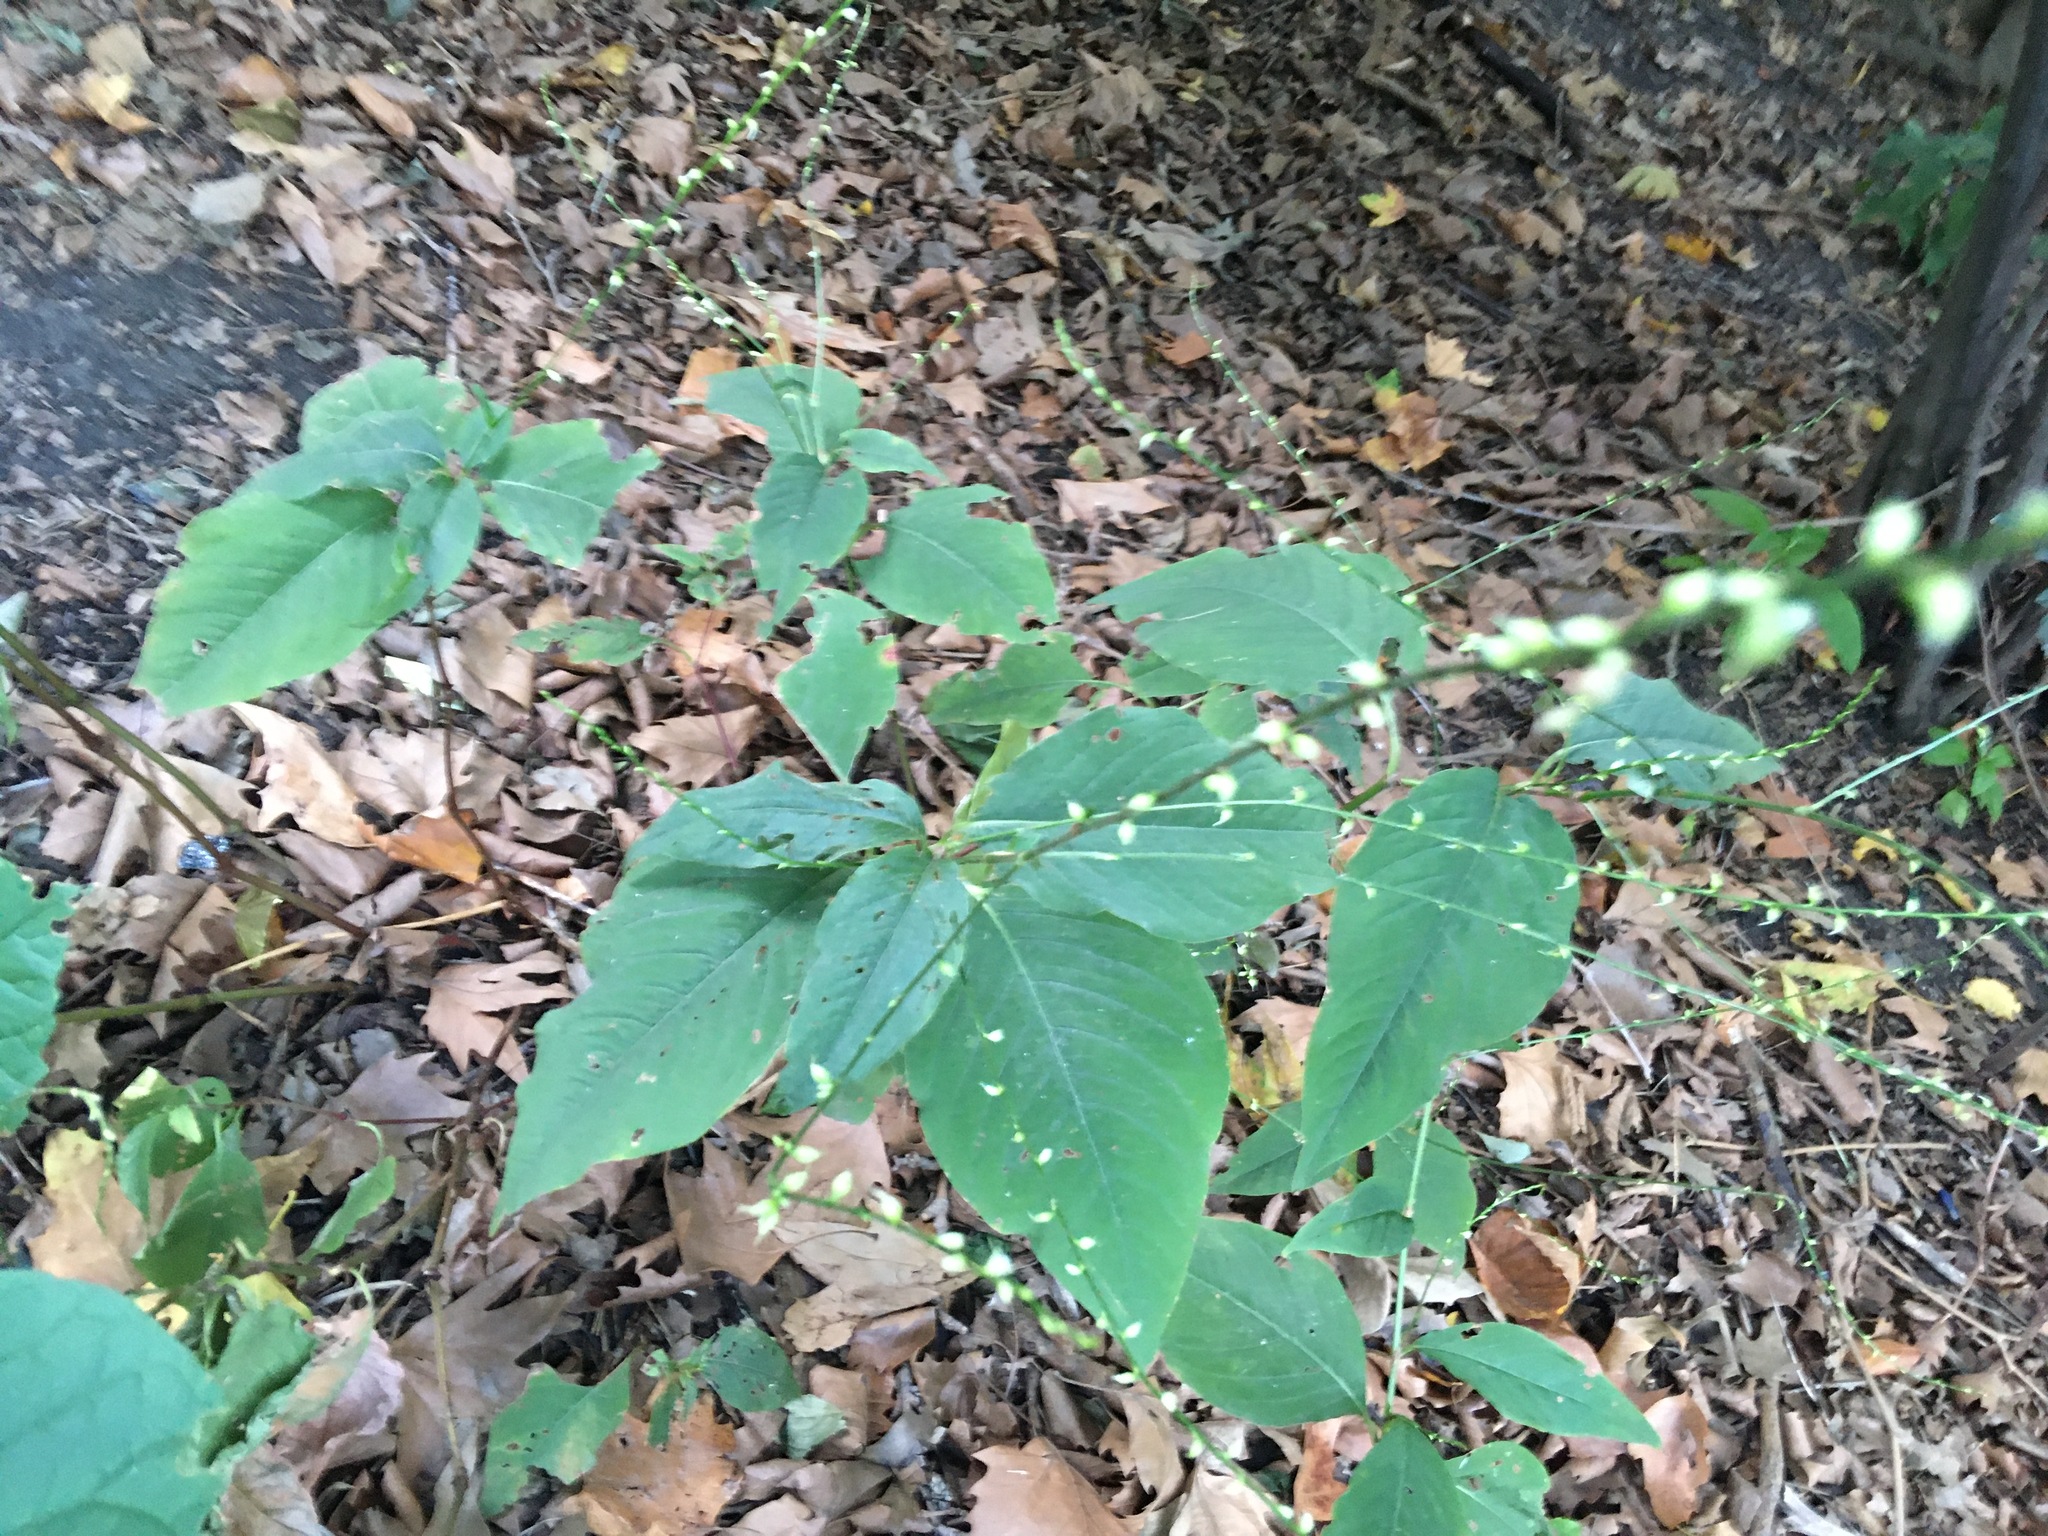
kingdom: Plantae
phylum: Tracheophyta
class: Magnoliopsida
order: Caryophyllales
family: Polygonaceae
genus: Persicaria
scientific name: Persicaria virginiana
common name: Jumpseed
